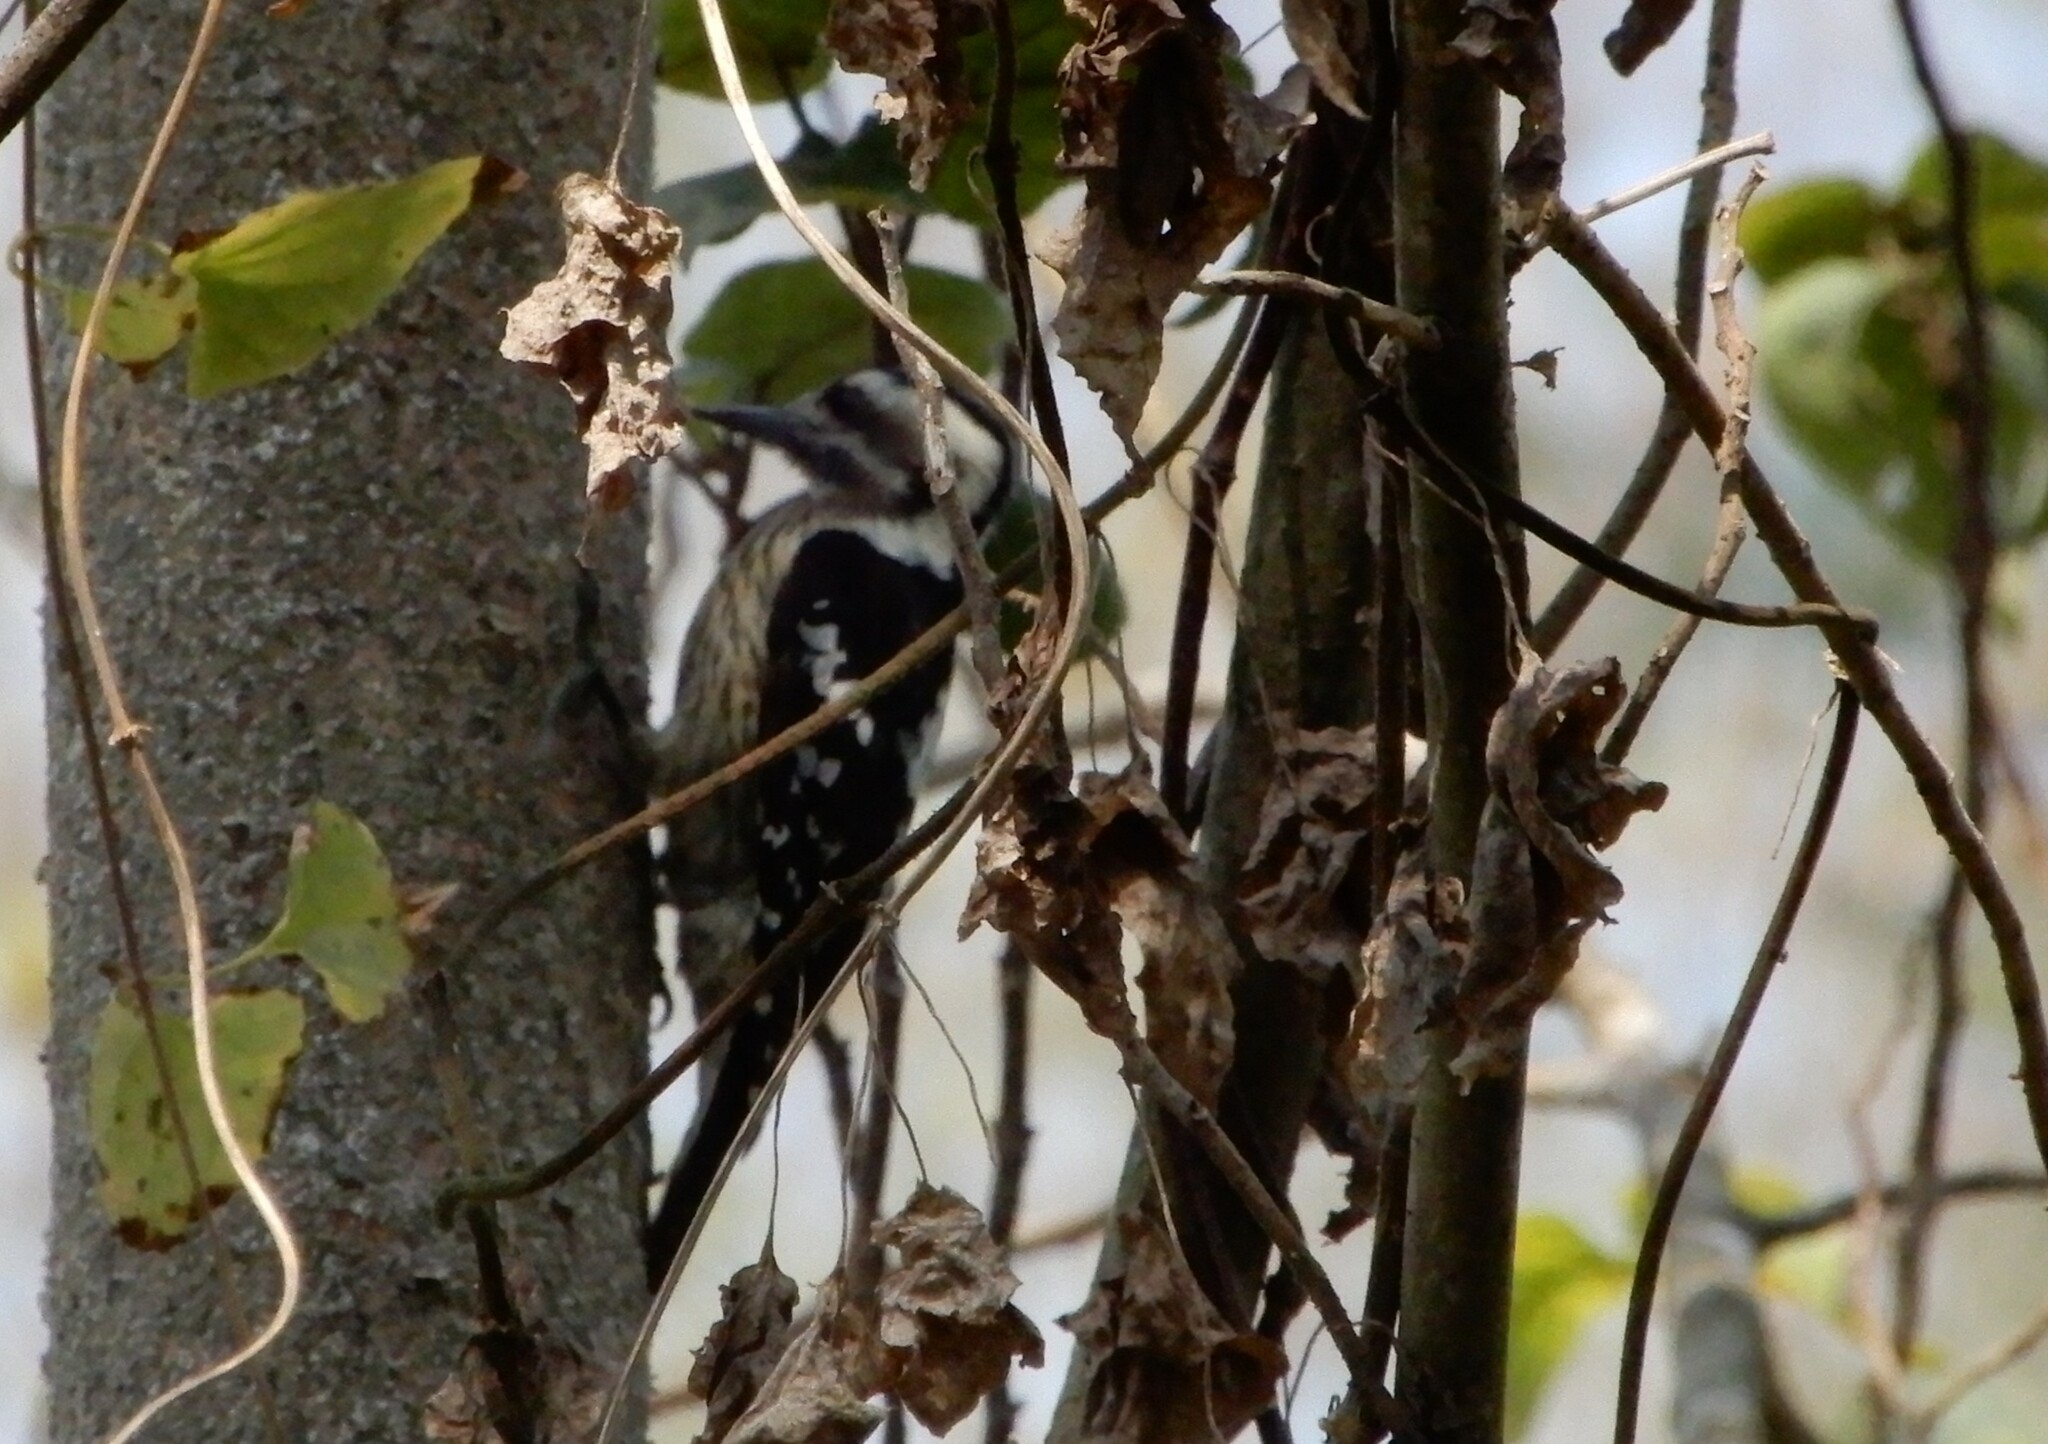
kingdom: Animalia
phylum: Chordata
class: Aves
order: Piciformes
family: Picidae
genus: Yungipicus
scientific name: Yungipicus canicapillus
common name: Grey-capped pygmy woodpecker
